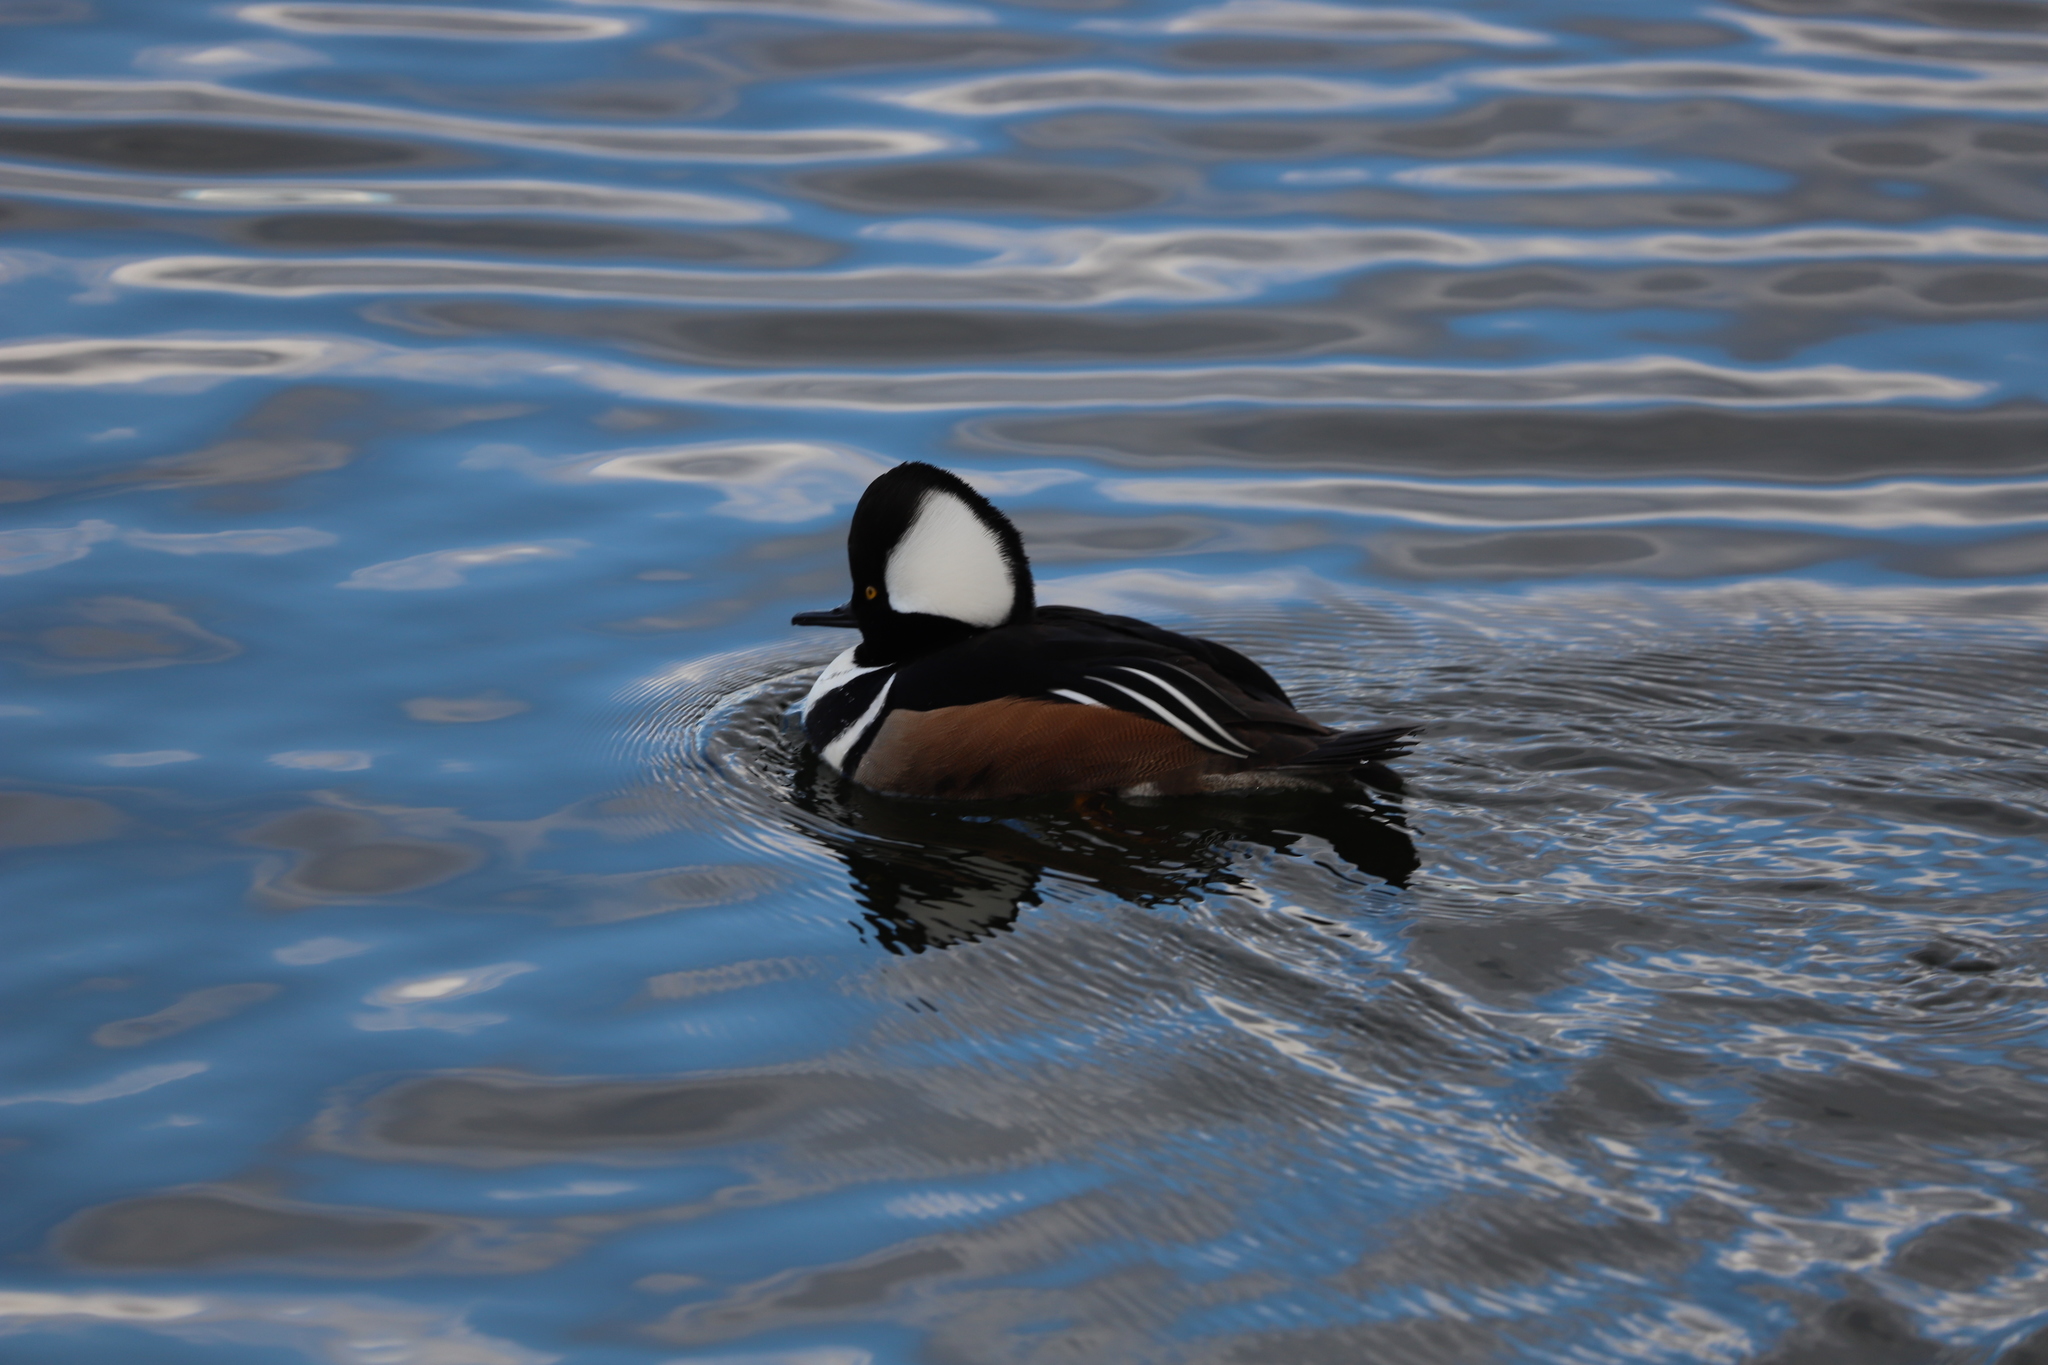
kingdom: Animalia
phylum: Chordata
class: Aves
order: Anseriformes
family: Anatidae
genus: Lophodytes
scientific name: Lophodytes cucullatus
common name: Hooded merganser
